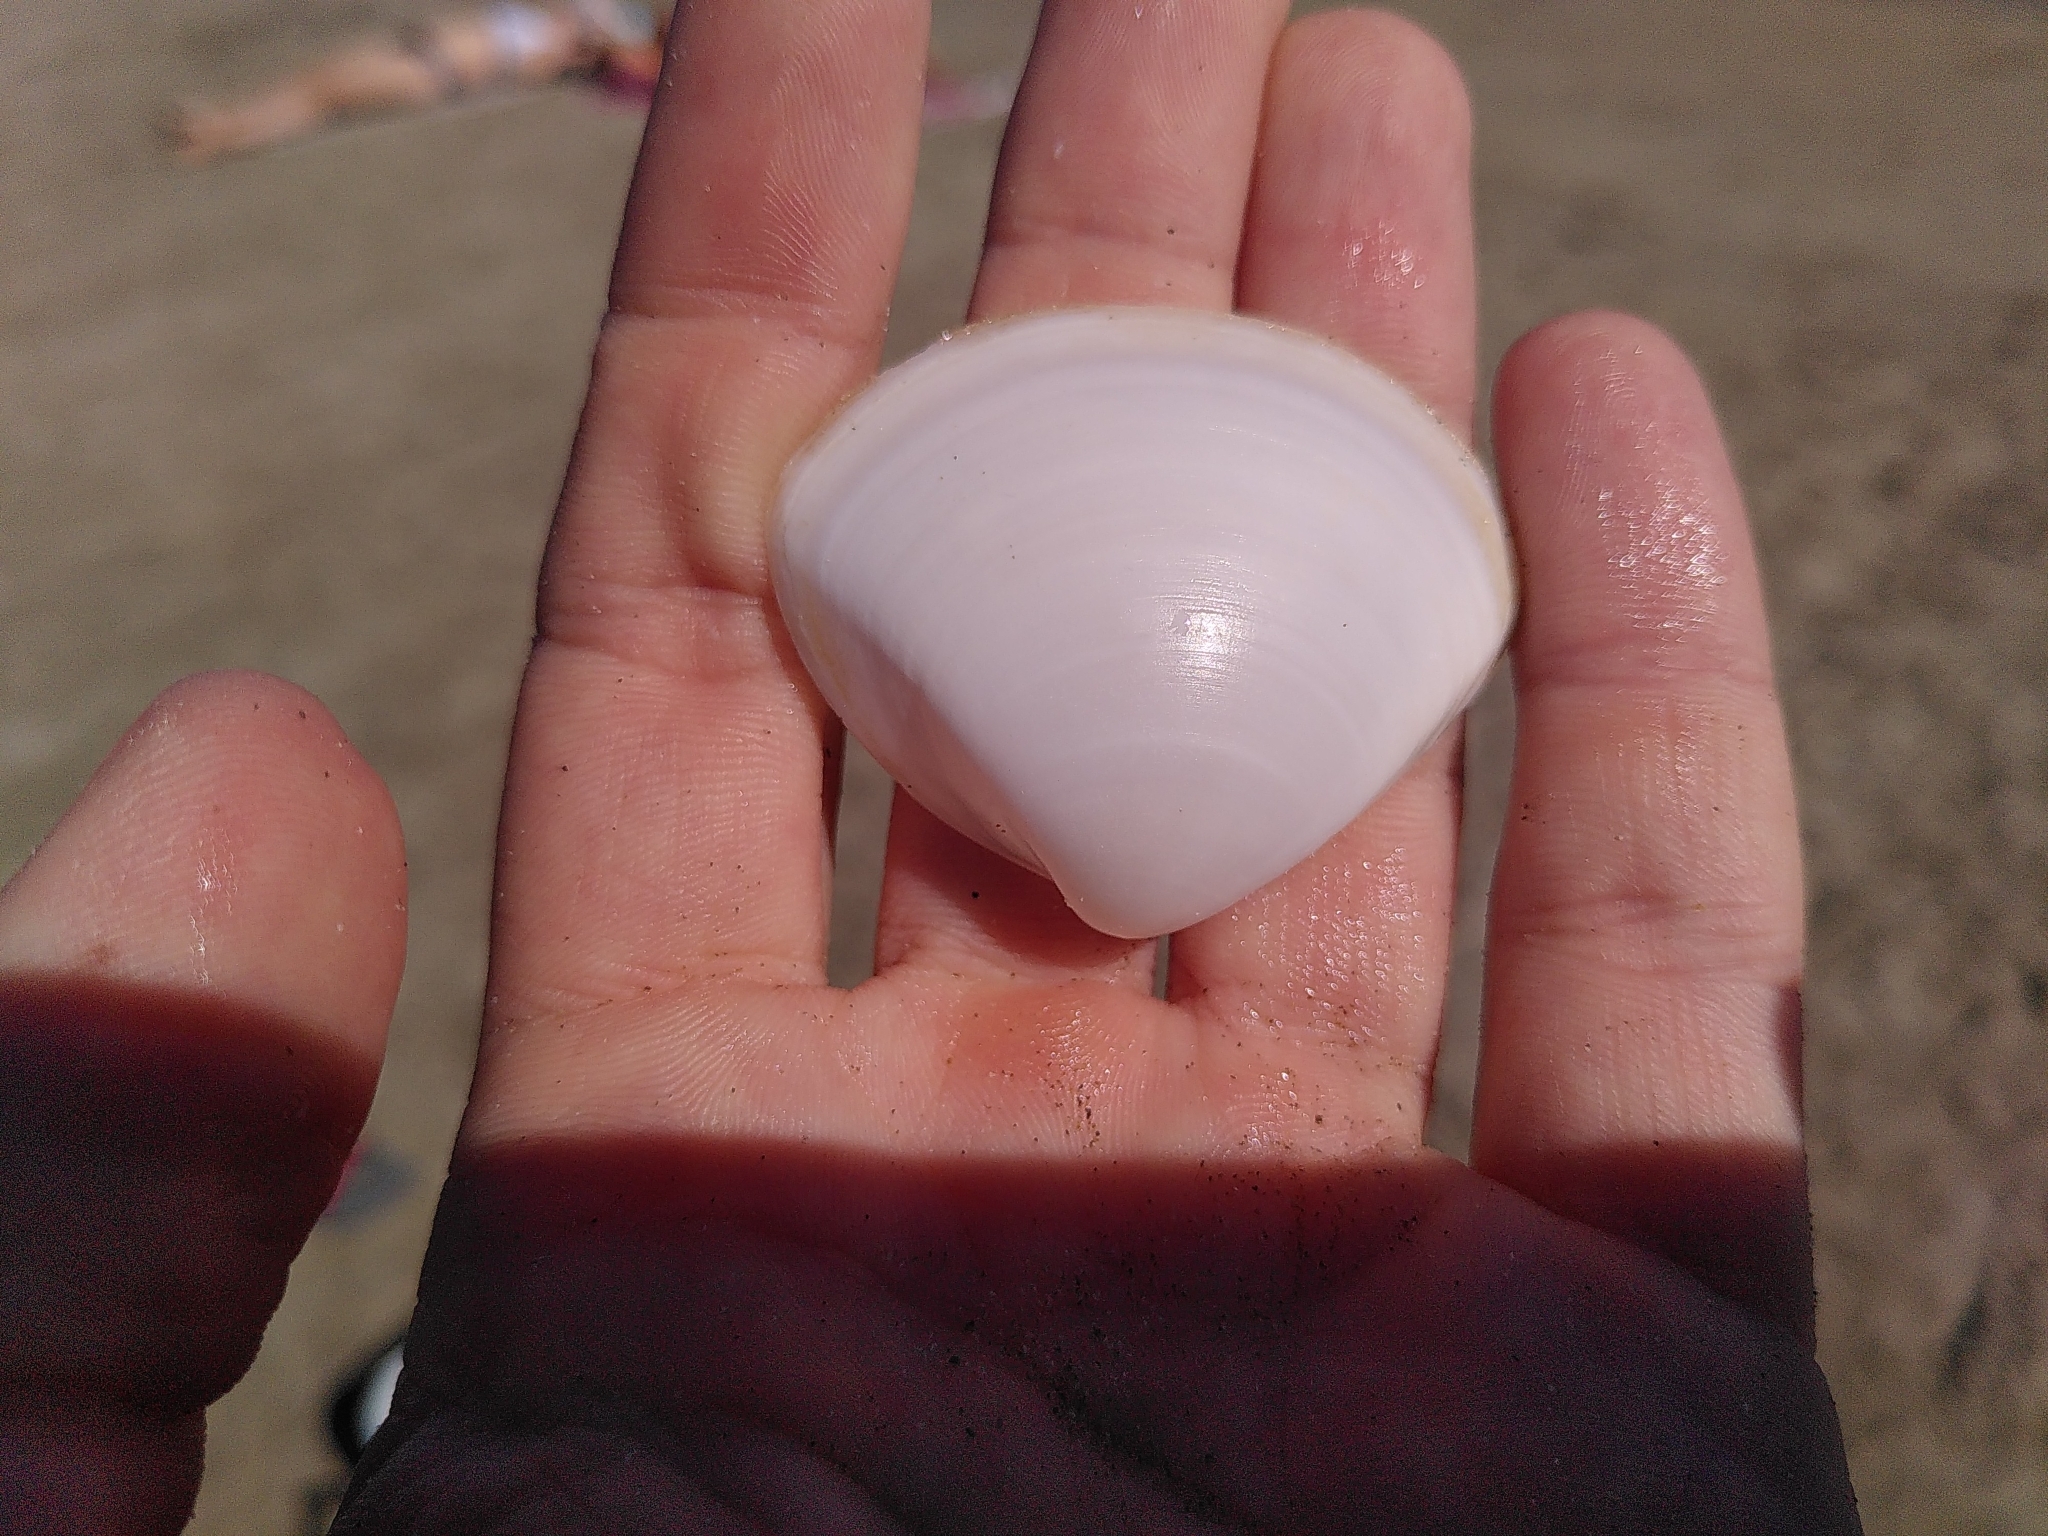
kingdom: Animalia
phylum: Mollusca
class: Bivalvia
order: Venerida
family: Mactridae
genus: Mactra
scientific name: Mactra stultorum
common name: Rayed trough shell
